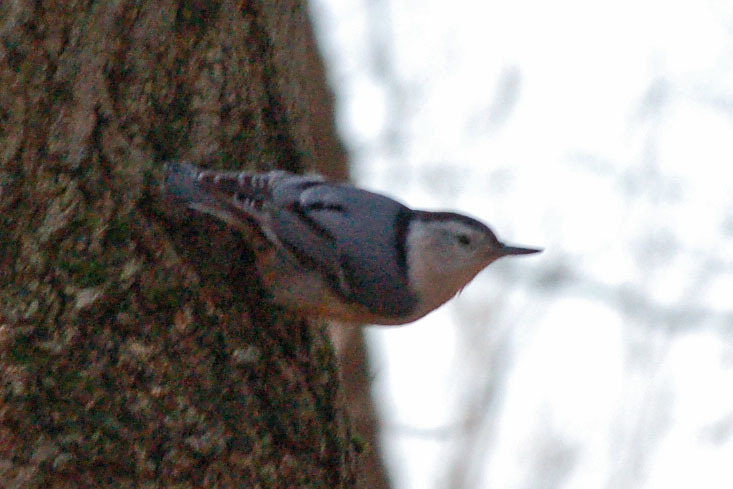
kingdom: Animalia
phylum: Chordata
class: Aves
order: Passeriformes
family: Sittidae
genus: Sitta
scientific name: Sitta carolinensis
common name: White-breasted nuthatch
